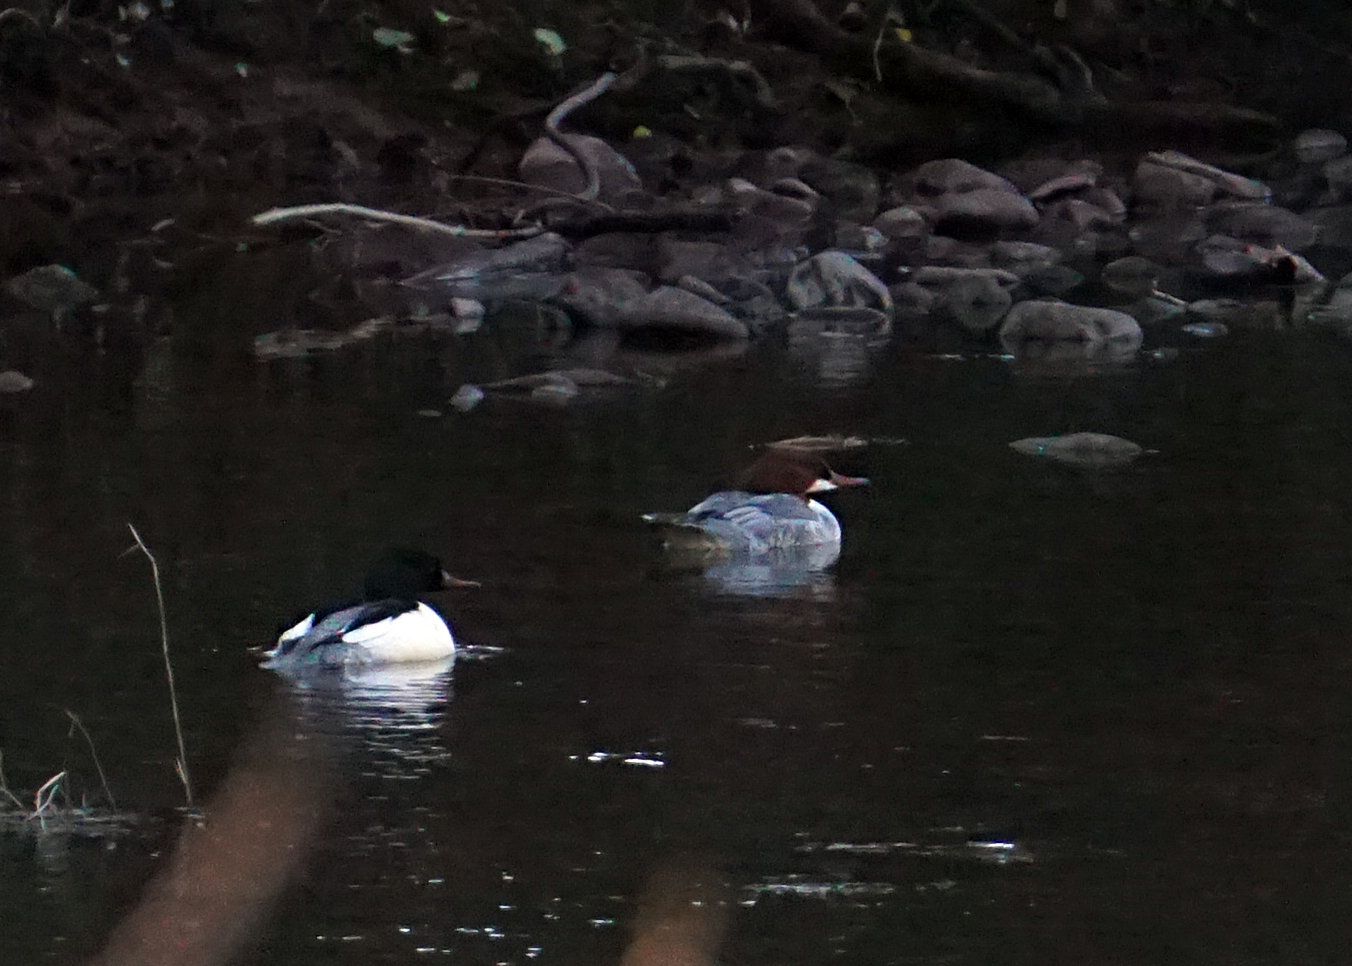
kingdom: Animalia
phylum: Chordata
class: Aves
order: Anseriformes
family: Anatidae
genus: Mergus
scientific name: Mergus merganser
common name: Common merganser
